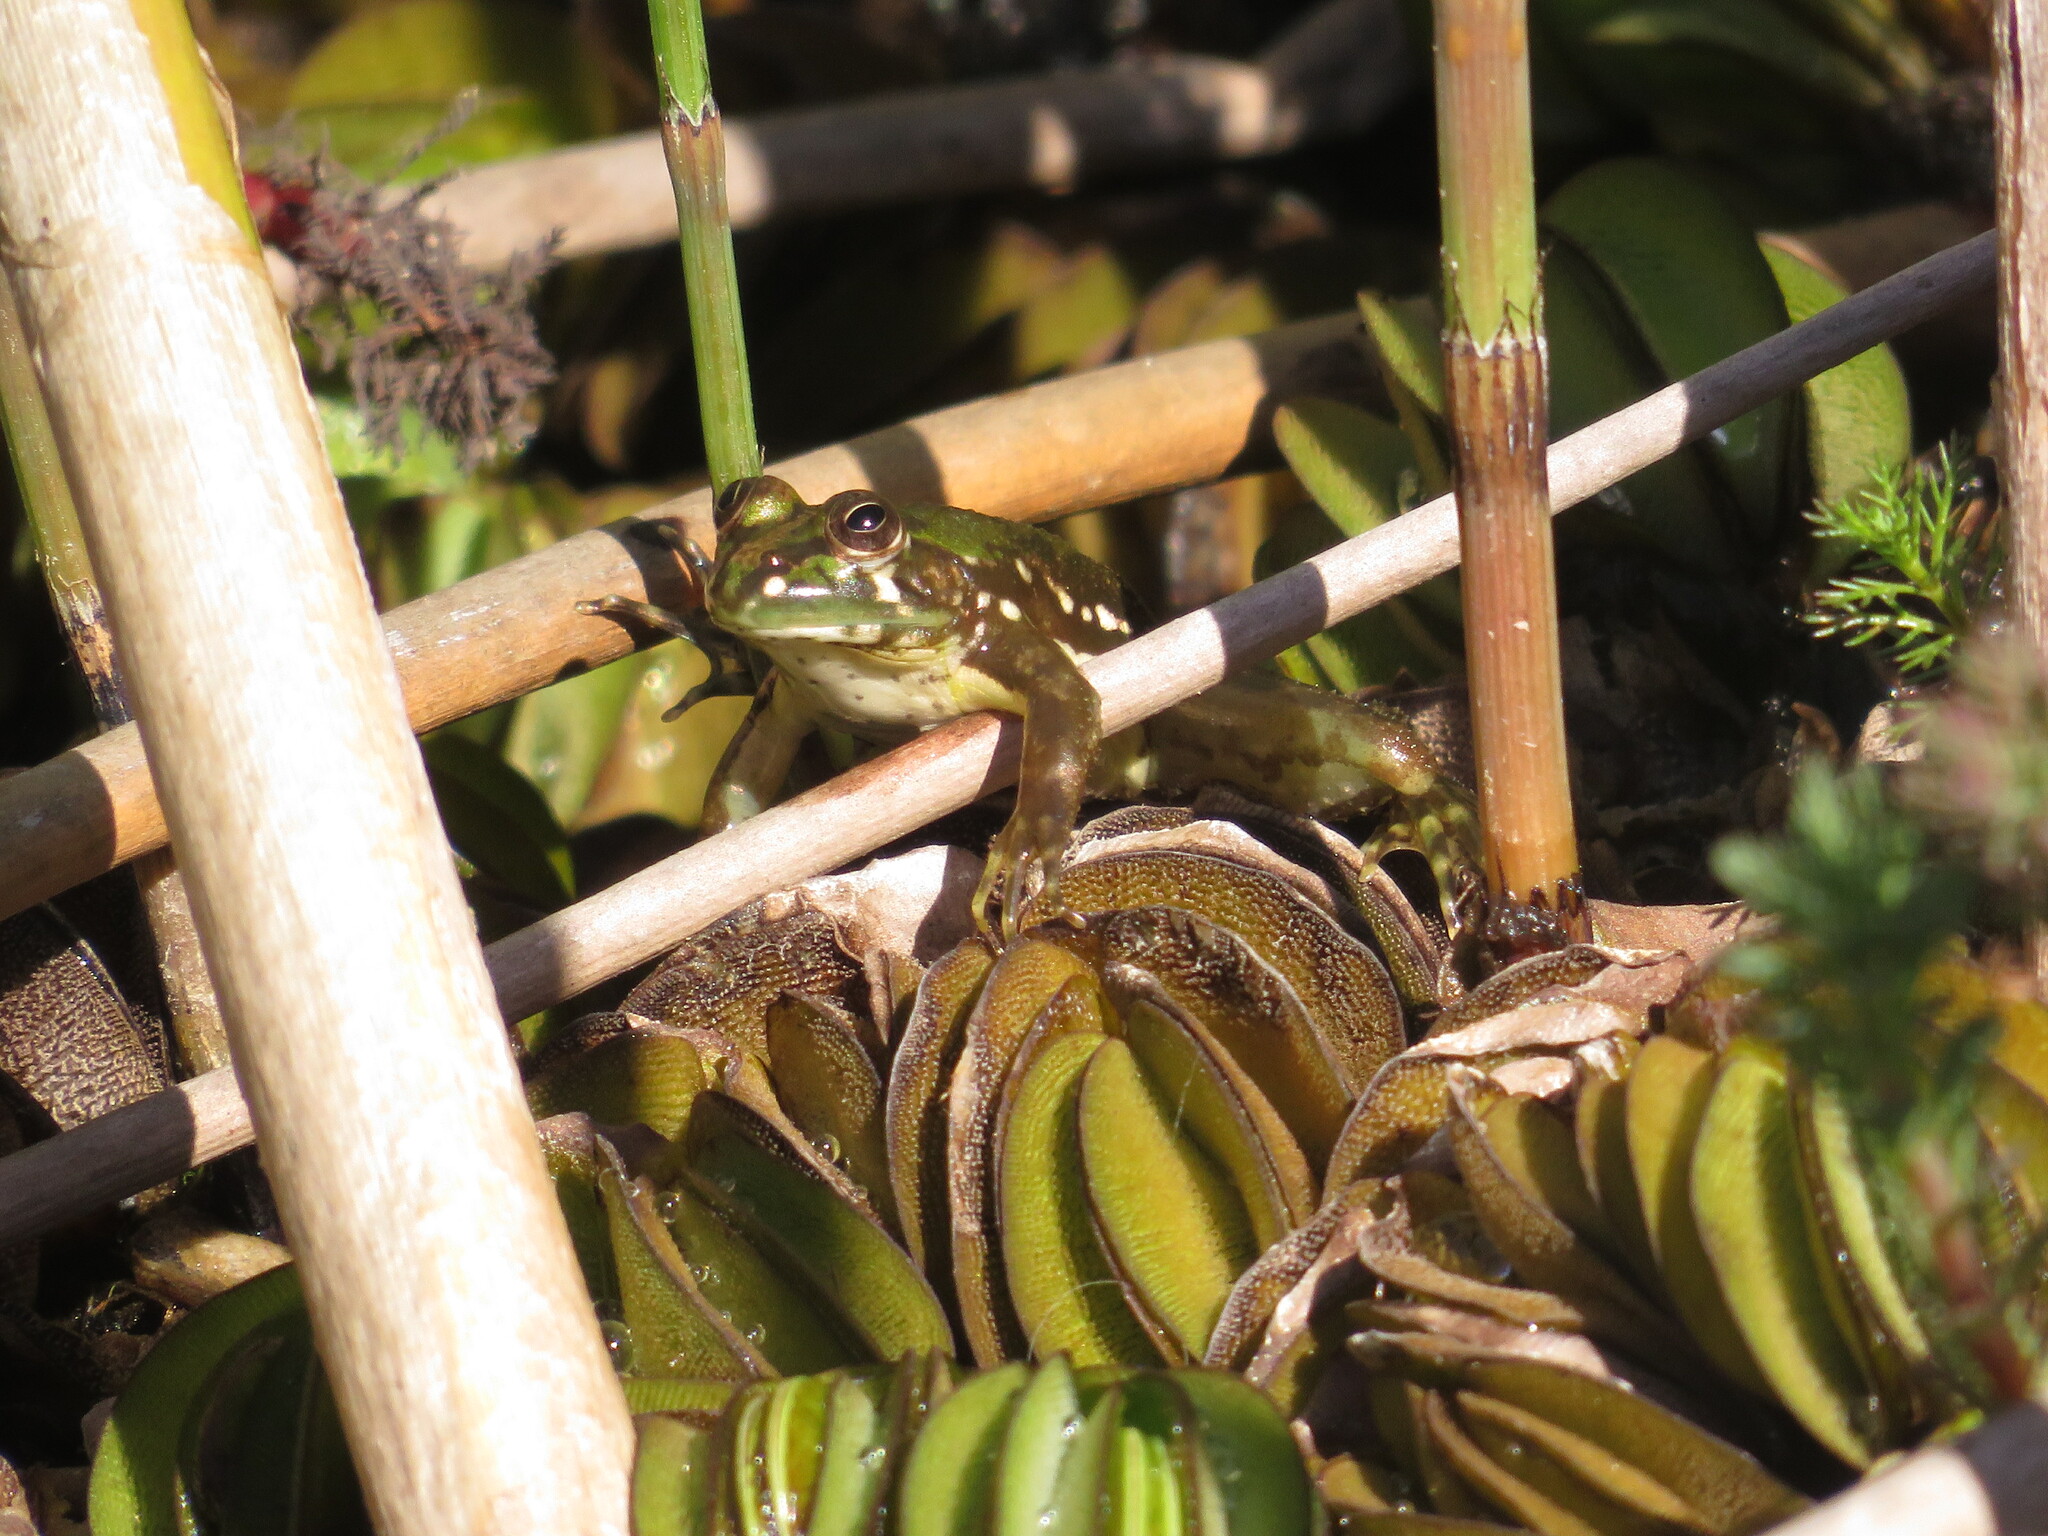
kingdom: Animalia
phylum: Chordata
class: Amphibia
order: Anura
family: Hylidae
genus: Pseudis
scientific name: Pseudis minuta
